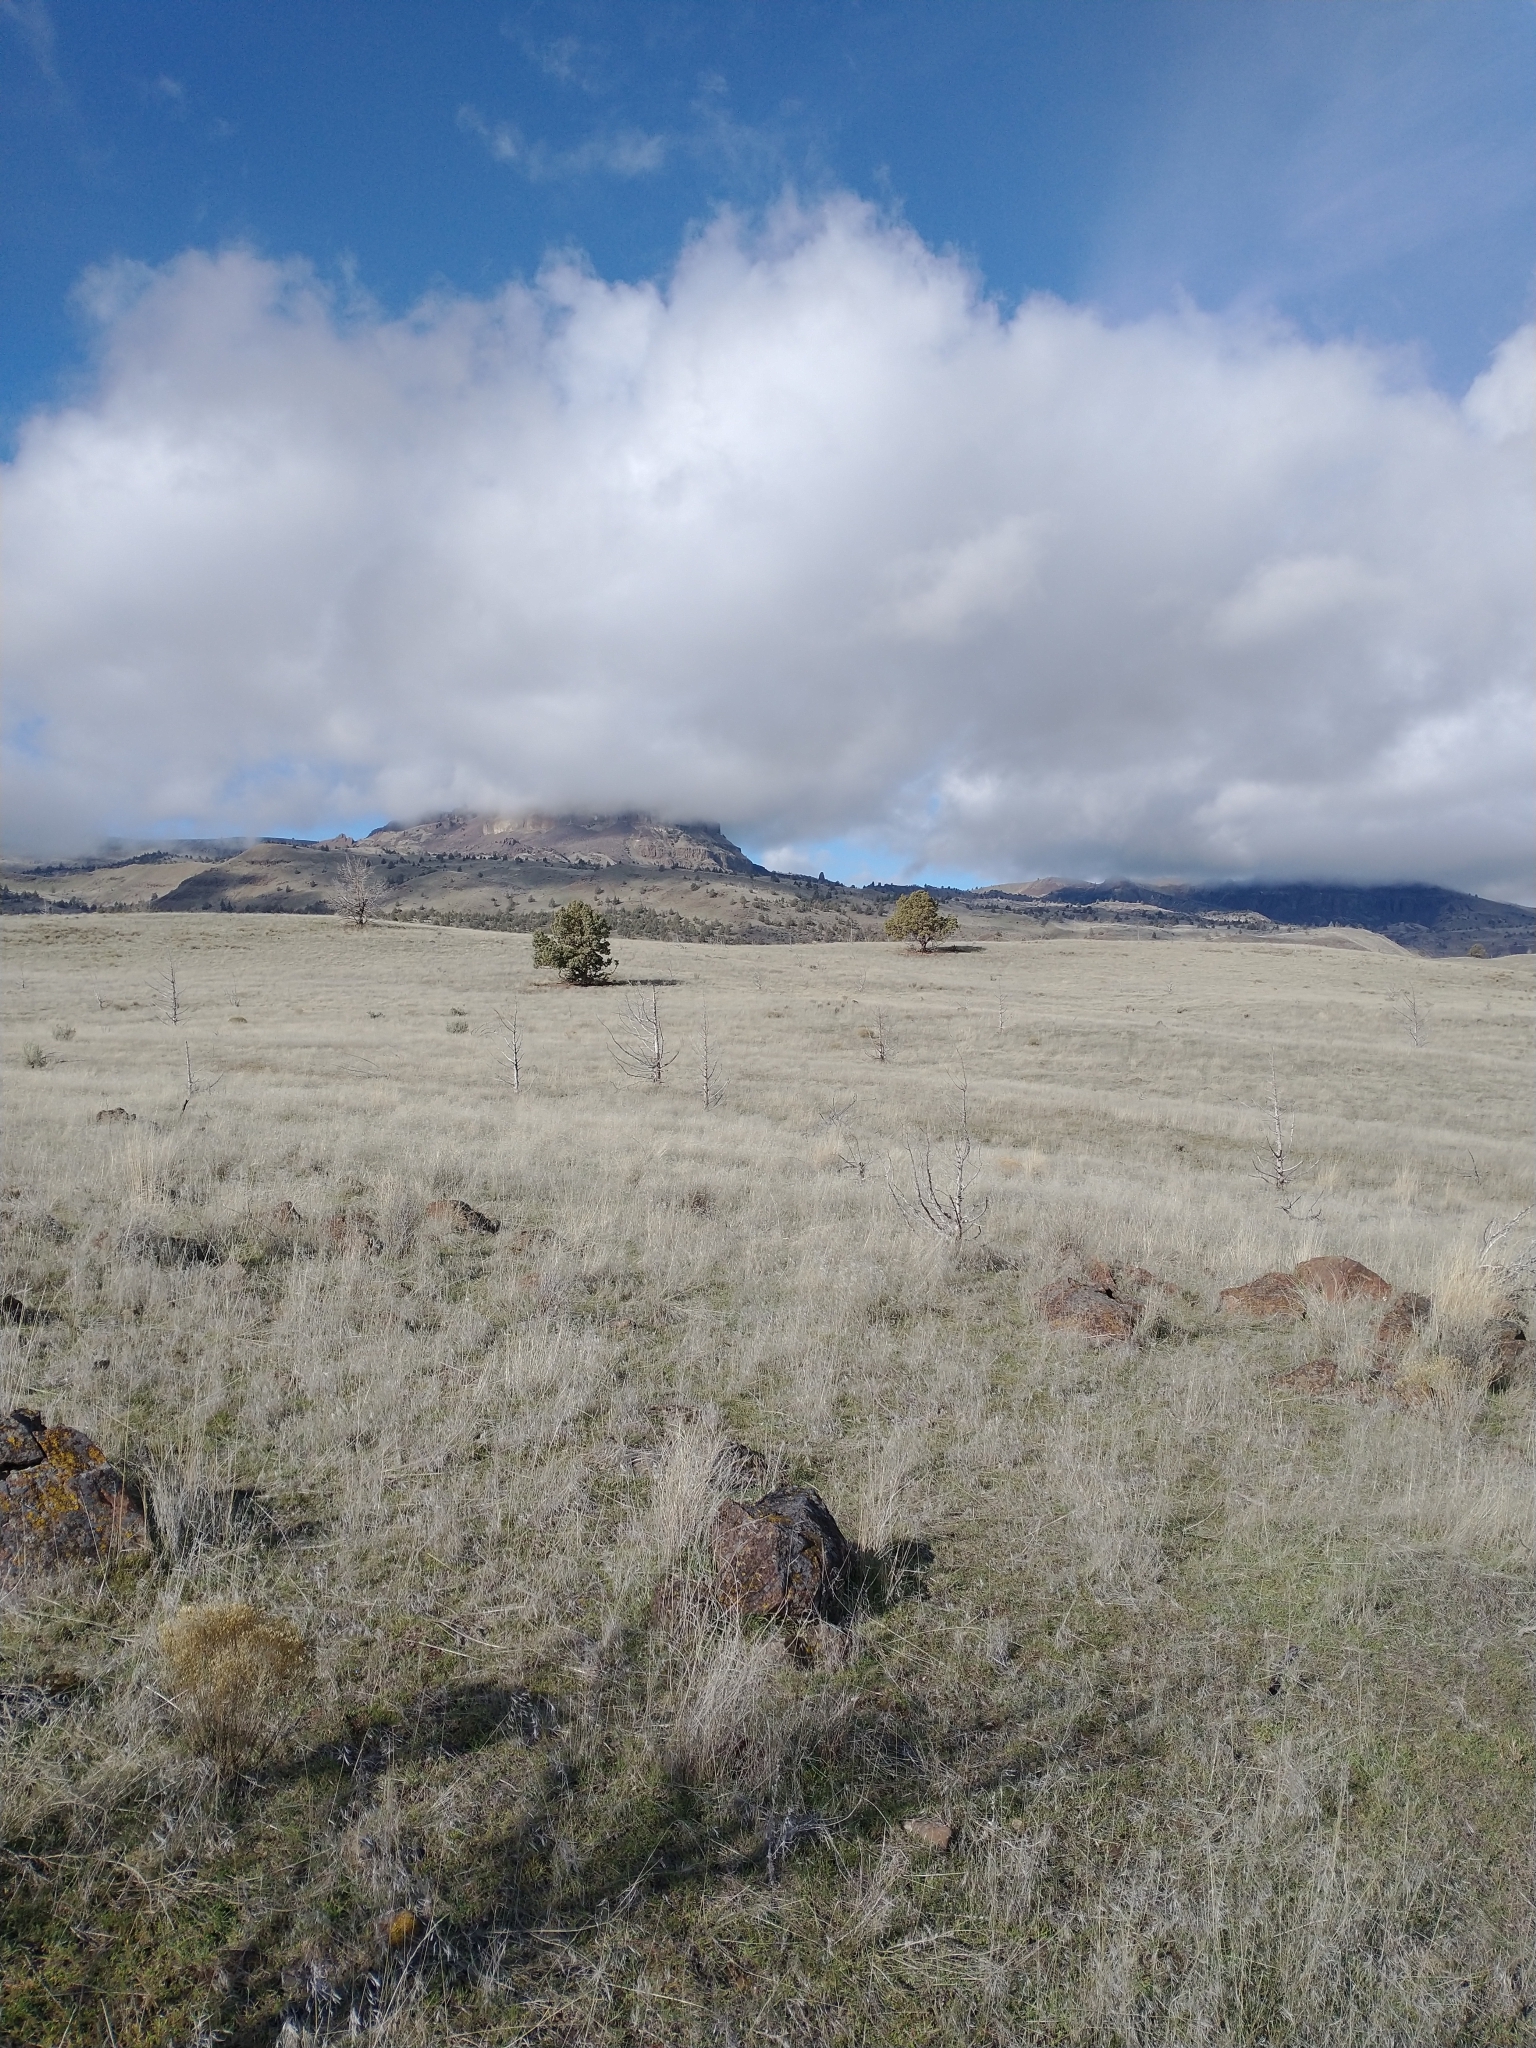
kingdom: Plantae
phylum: Tracheophyta
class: Pinopsida
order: Pinales
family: Cupressaceae
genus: Juniperus
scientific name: Juniperus occidentalis
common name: Western juniper
